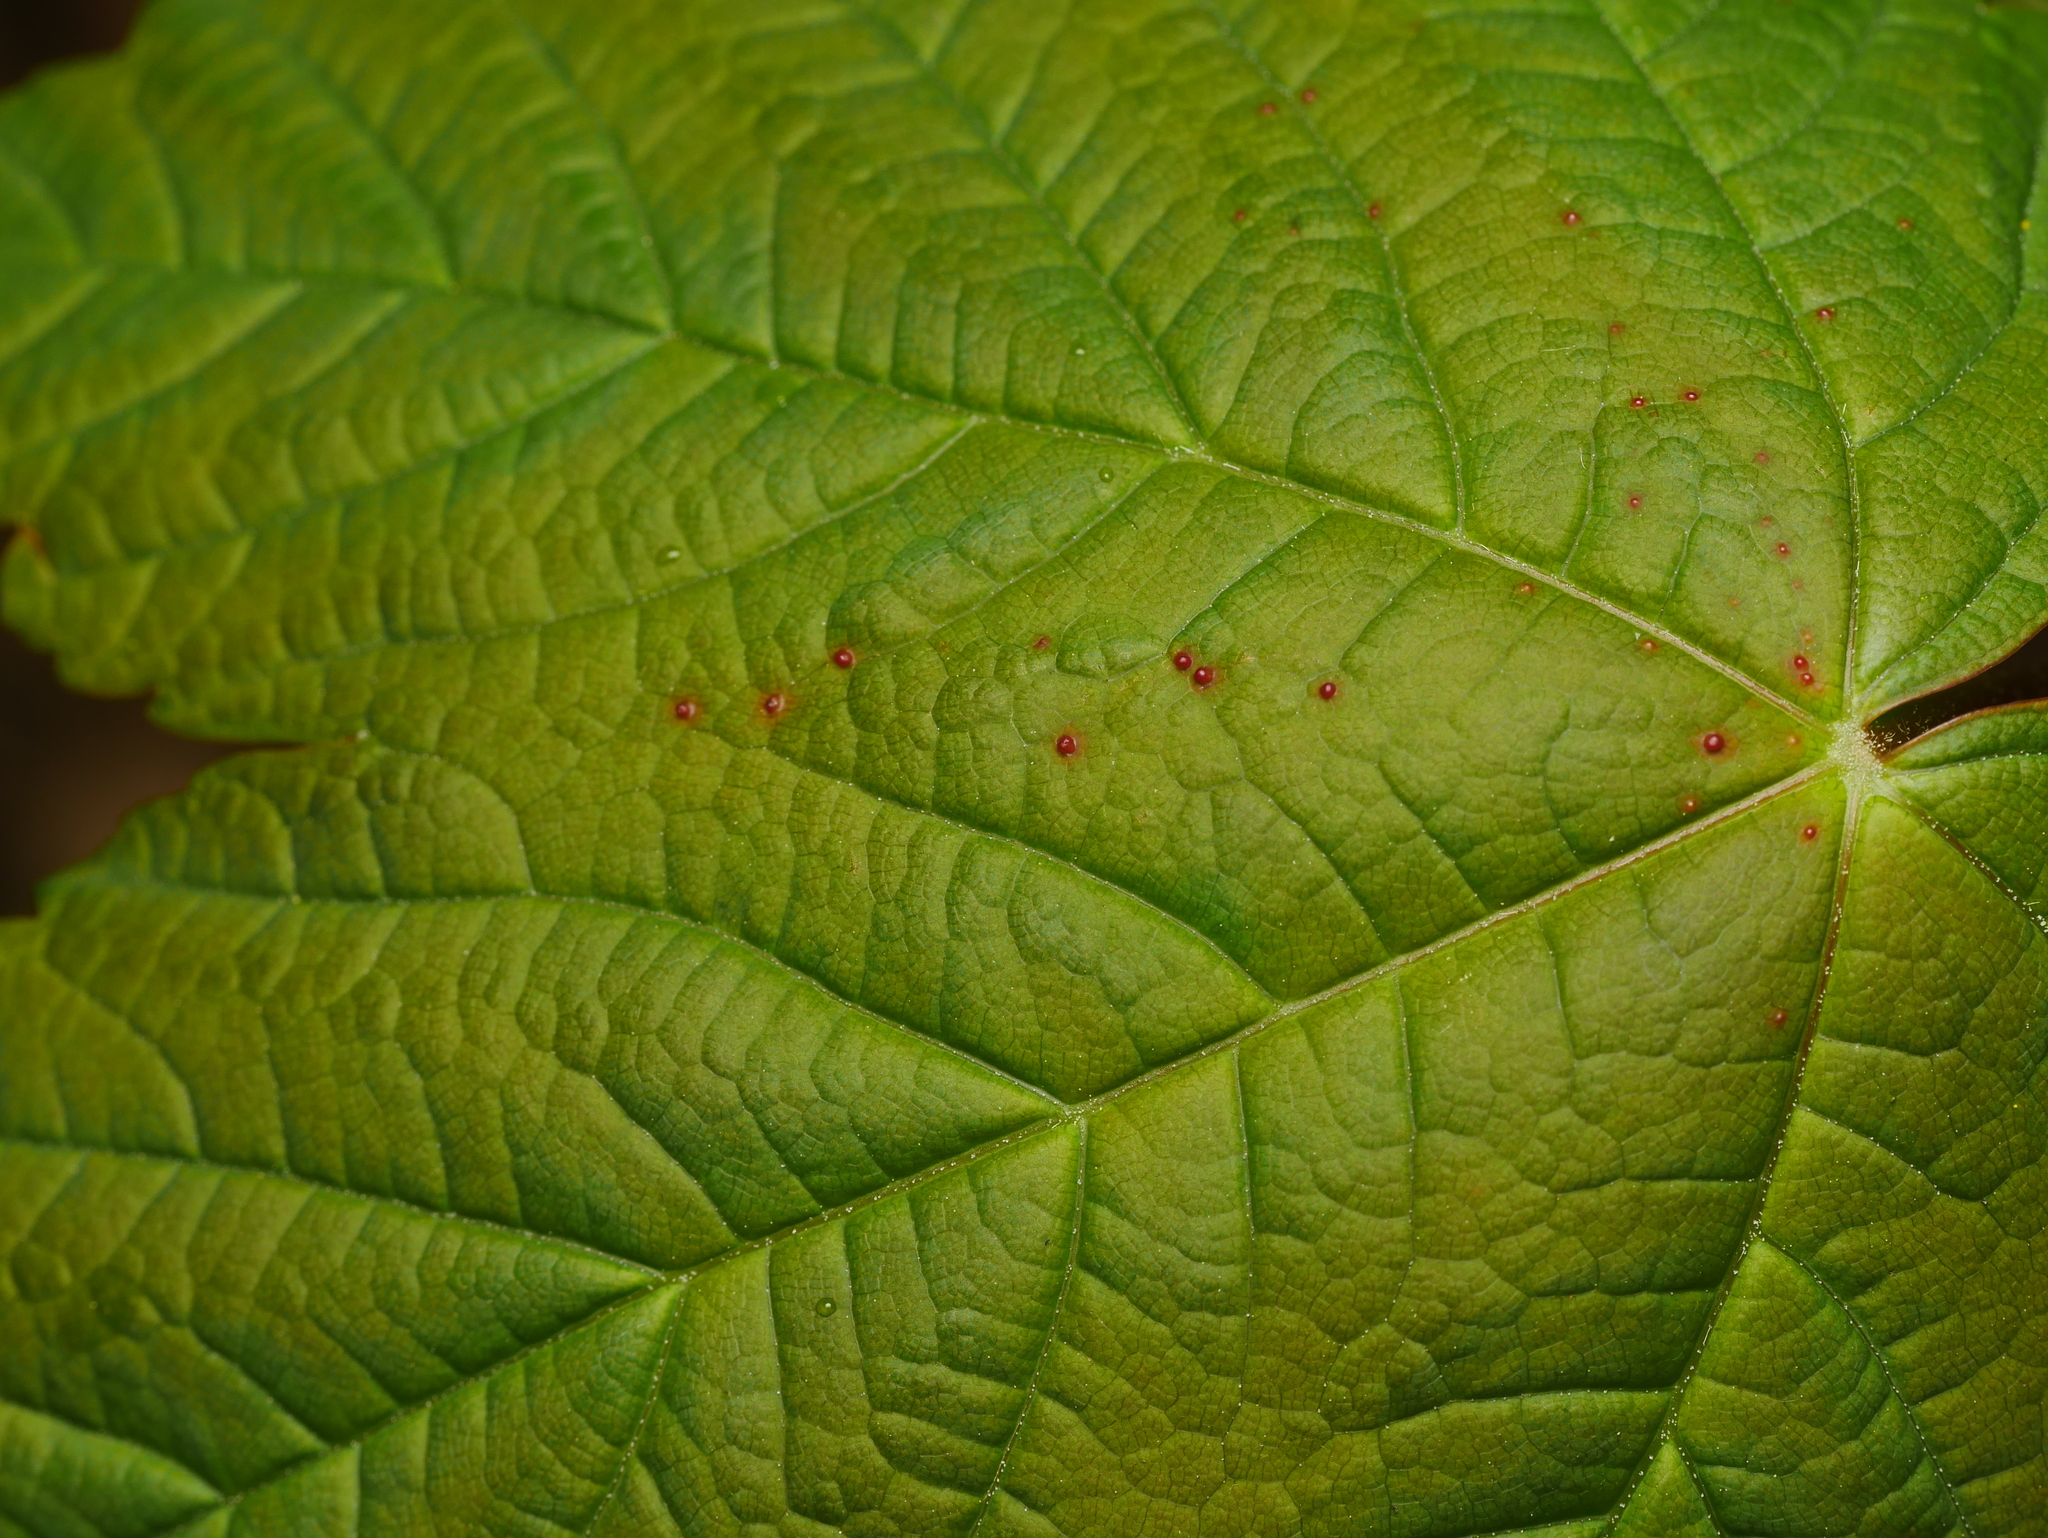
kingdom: Animalia
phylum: Arthropoda
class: Arachnida
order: Trombidiformes
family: Eriophyidae
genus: Aceria
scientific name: Aceria cephaloneus
